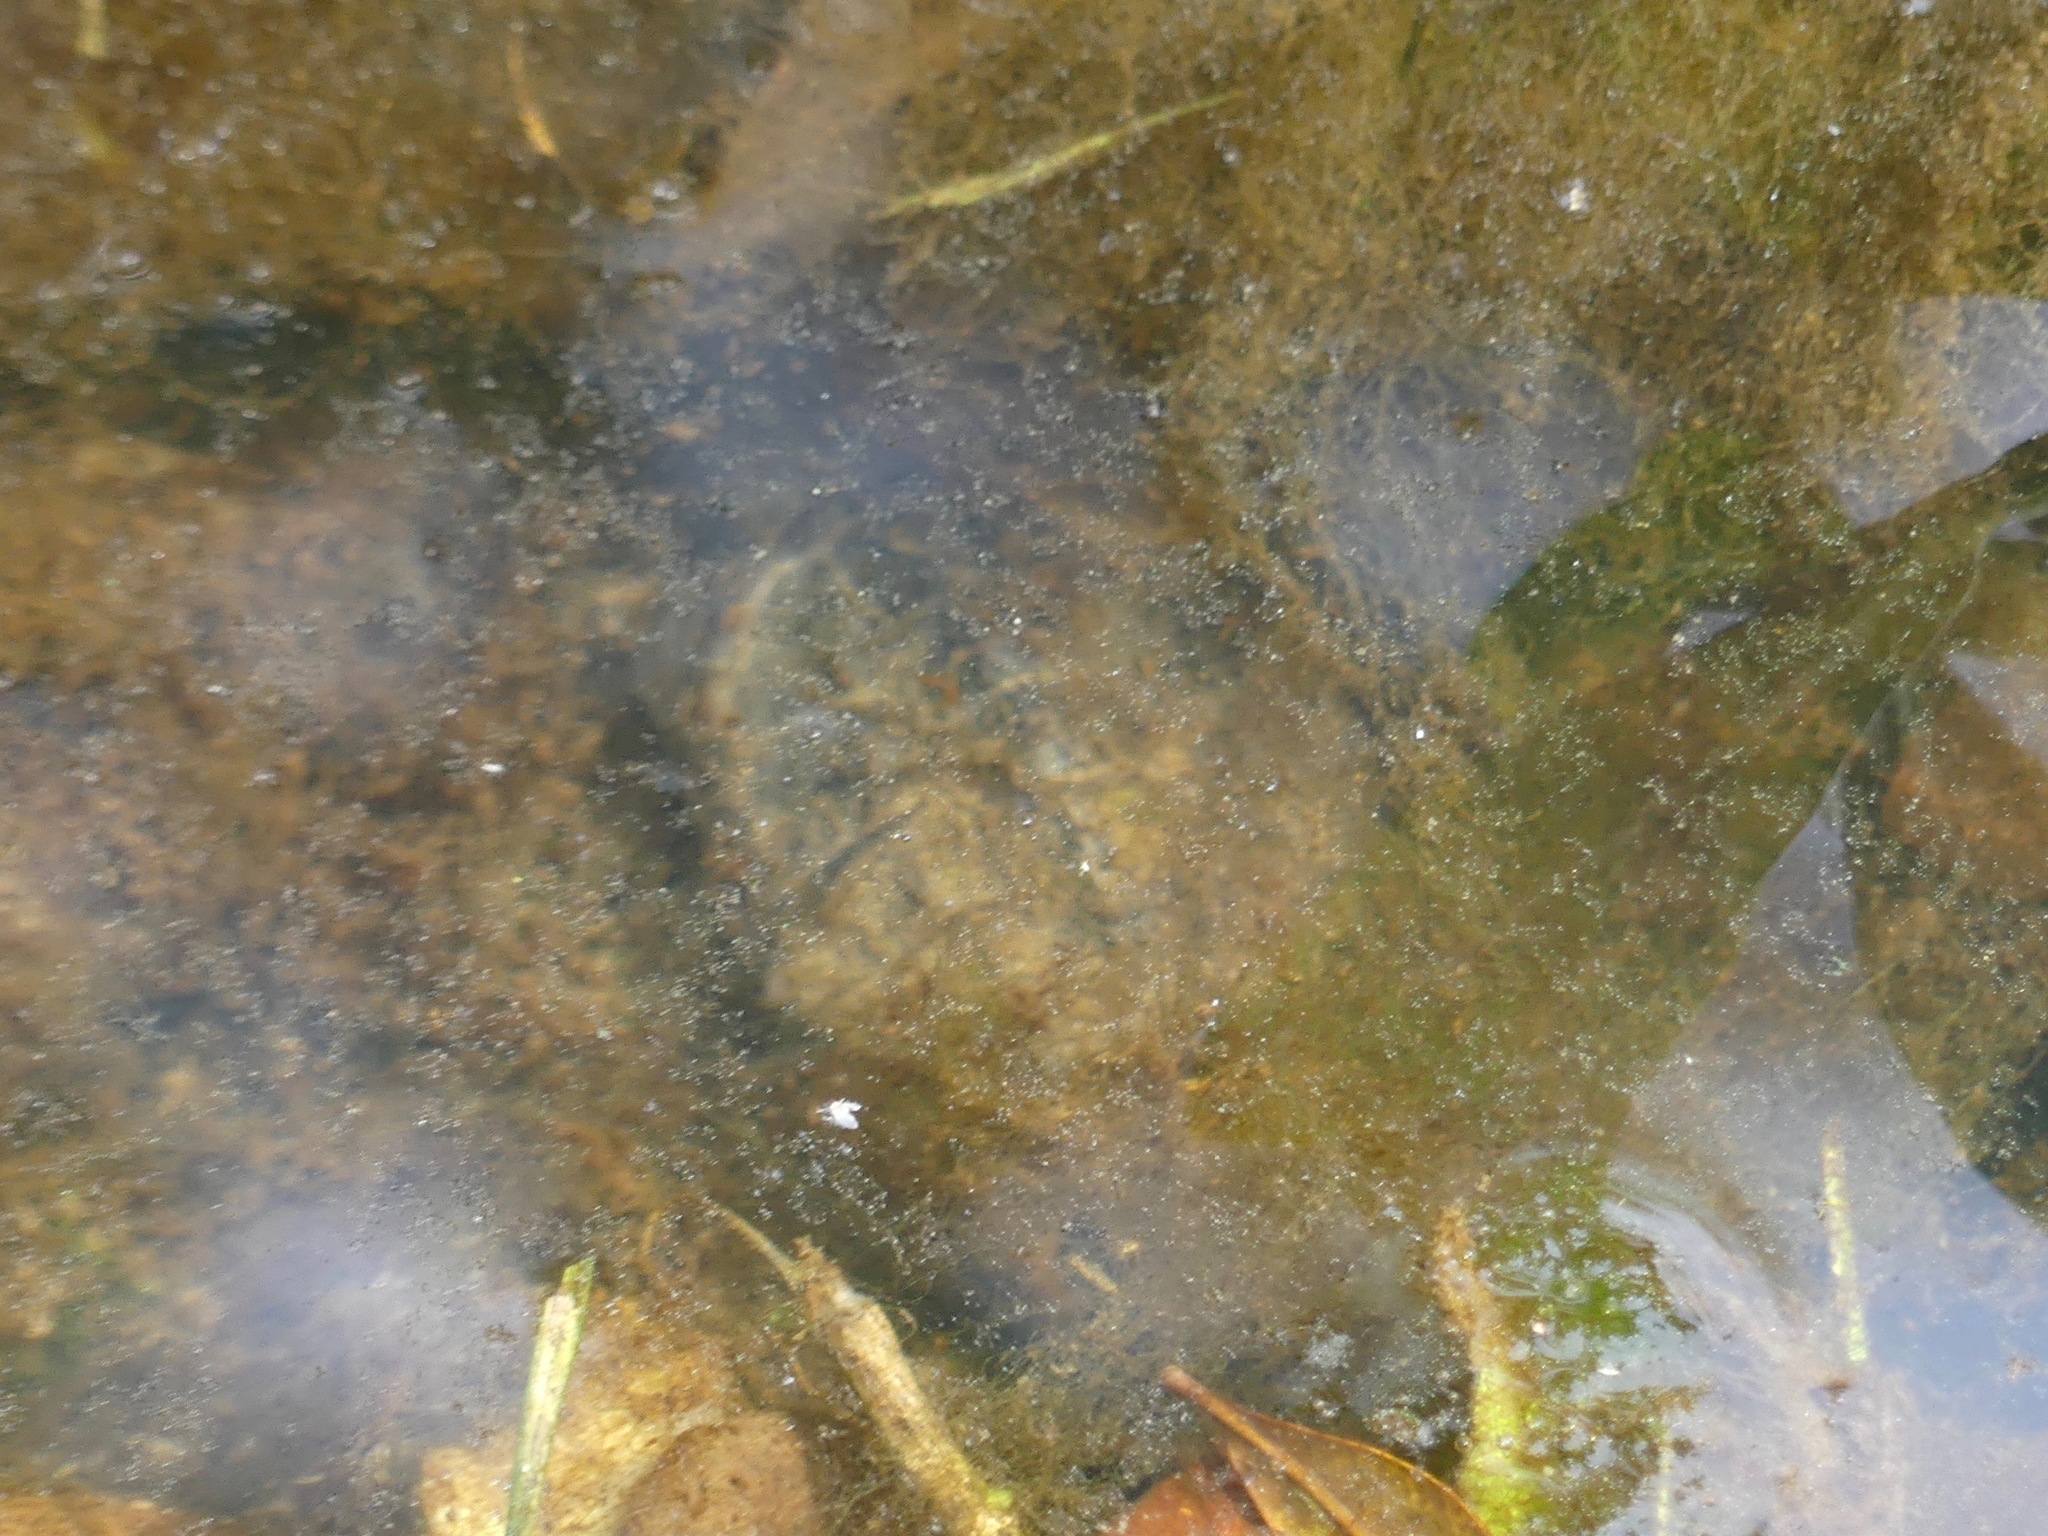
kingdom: Animalia
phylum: Chordata
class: Testudines
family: Kinosternidae
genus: Sternotherus
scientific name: Sternotherus odoratus
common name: Common musk turtle
